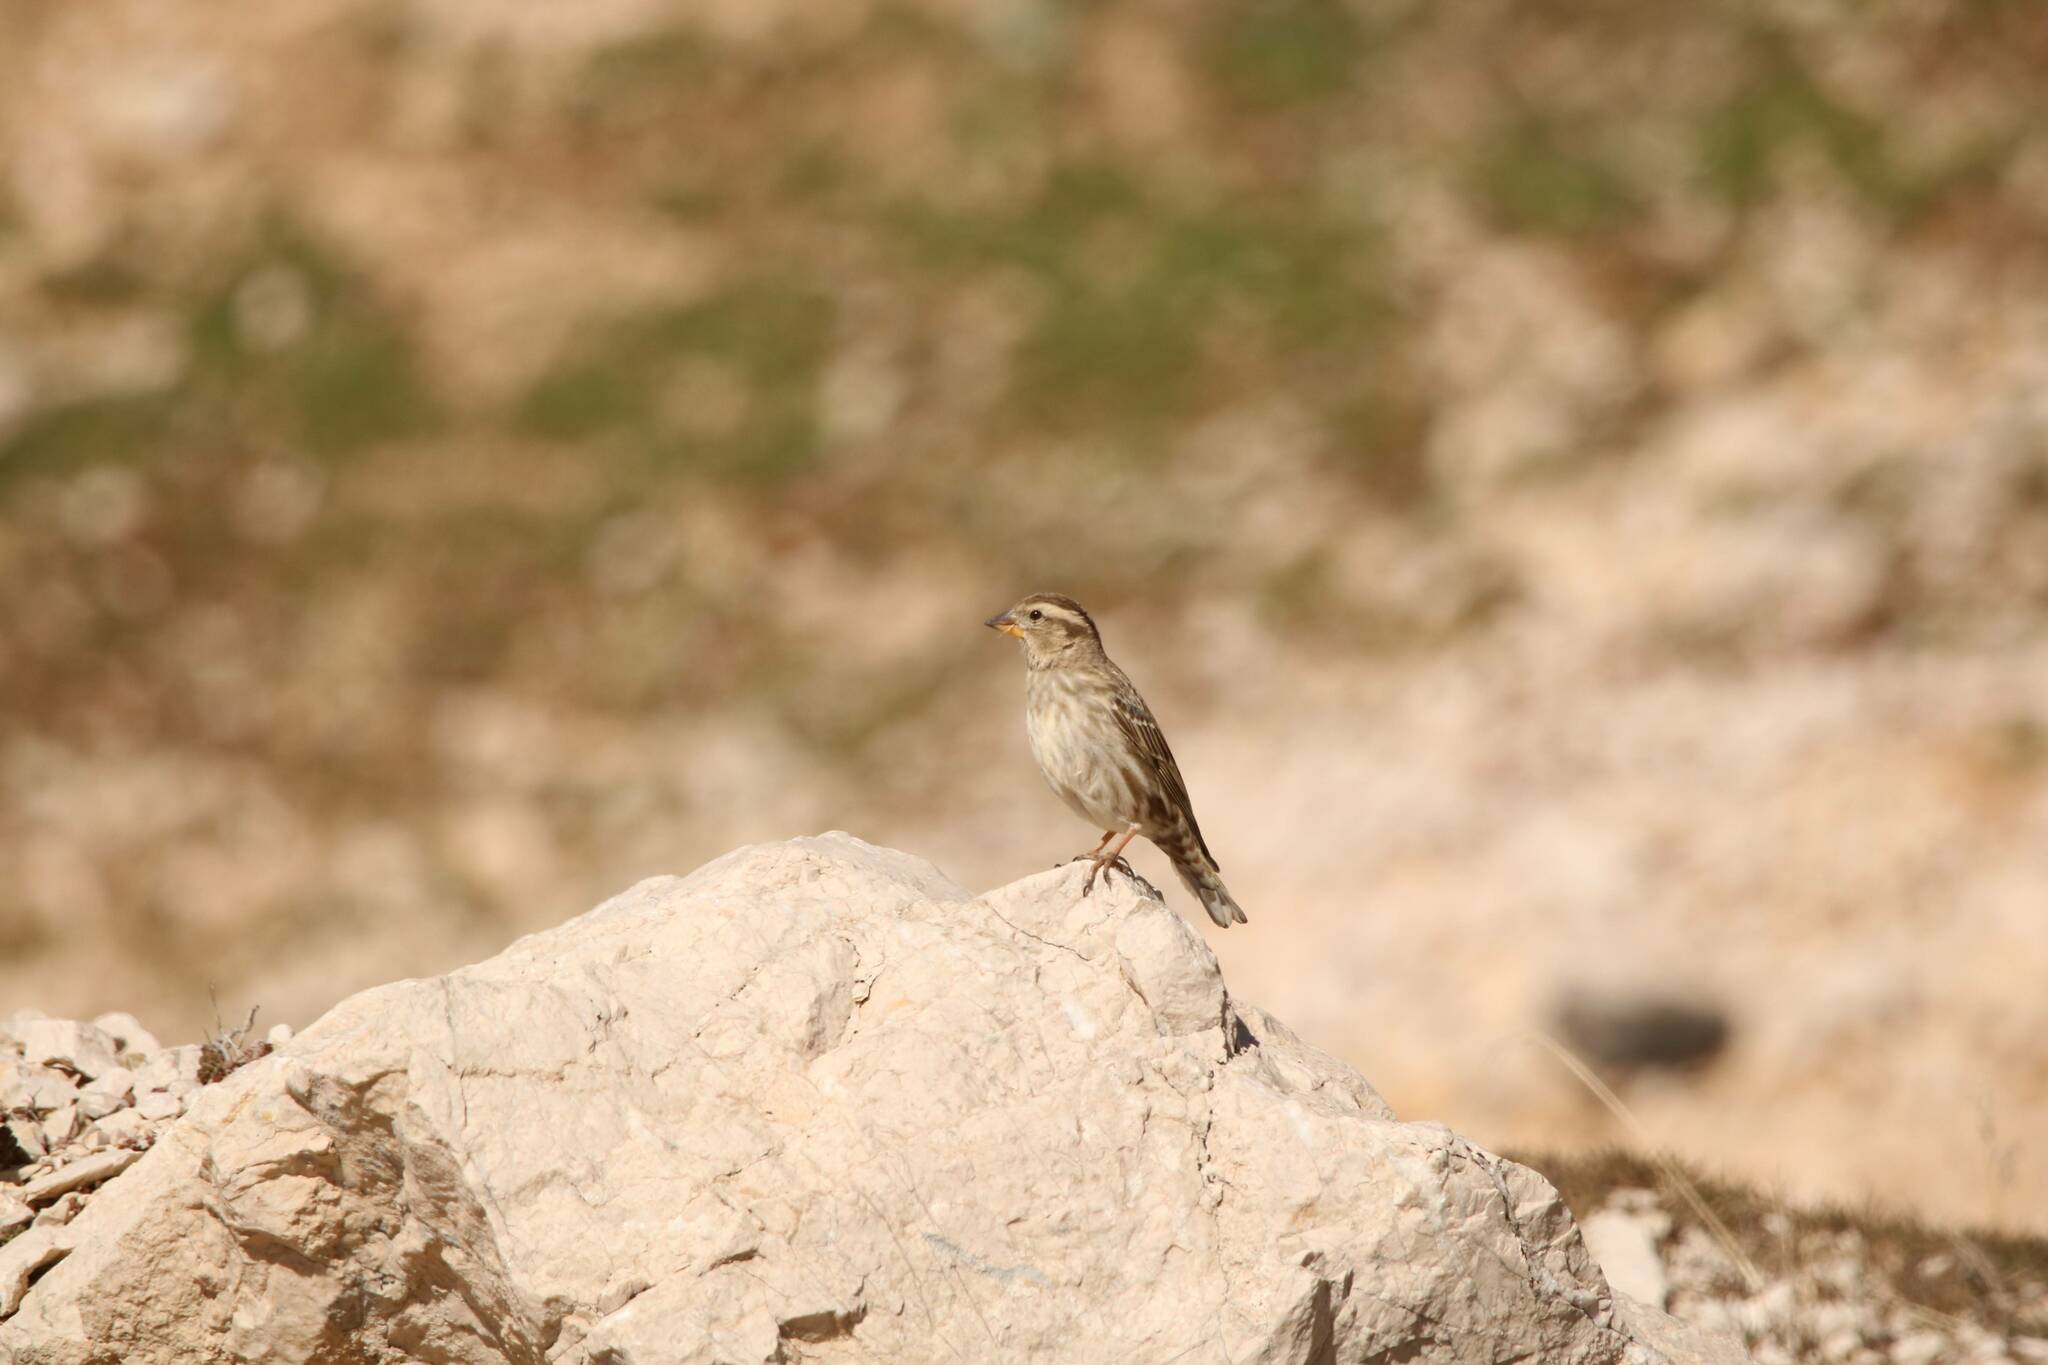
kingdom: Animalia
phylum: Chordata
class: Aves
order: Passeriformes
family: Passeridae
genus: Petronia
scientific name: Petronia petronia
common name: Rock sparrow
